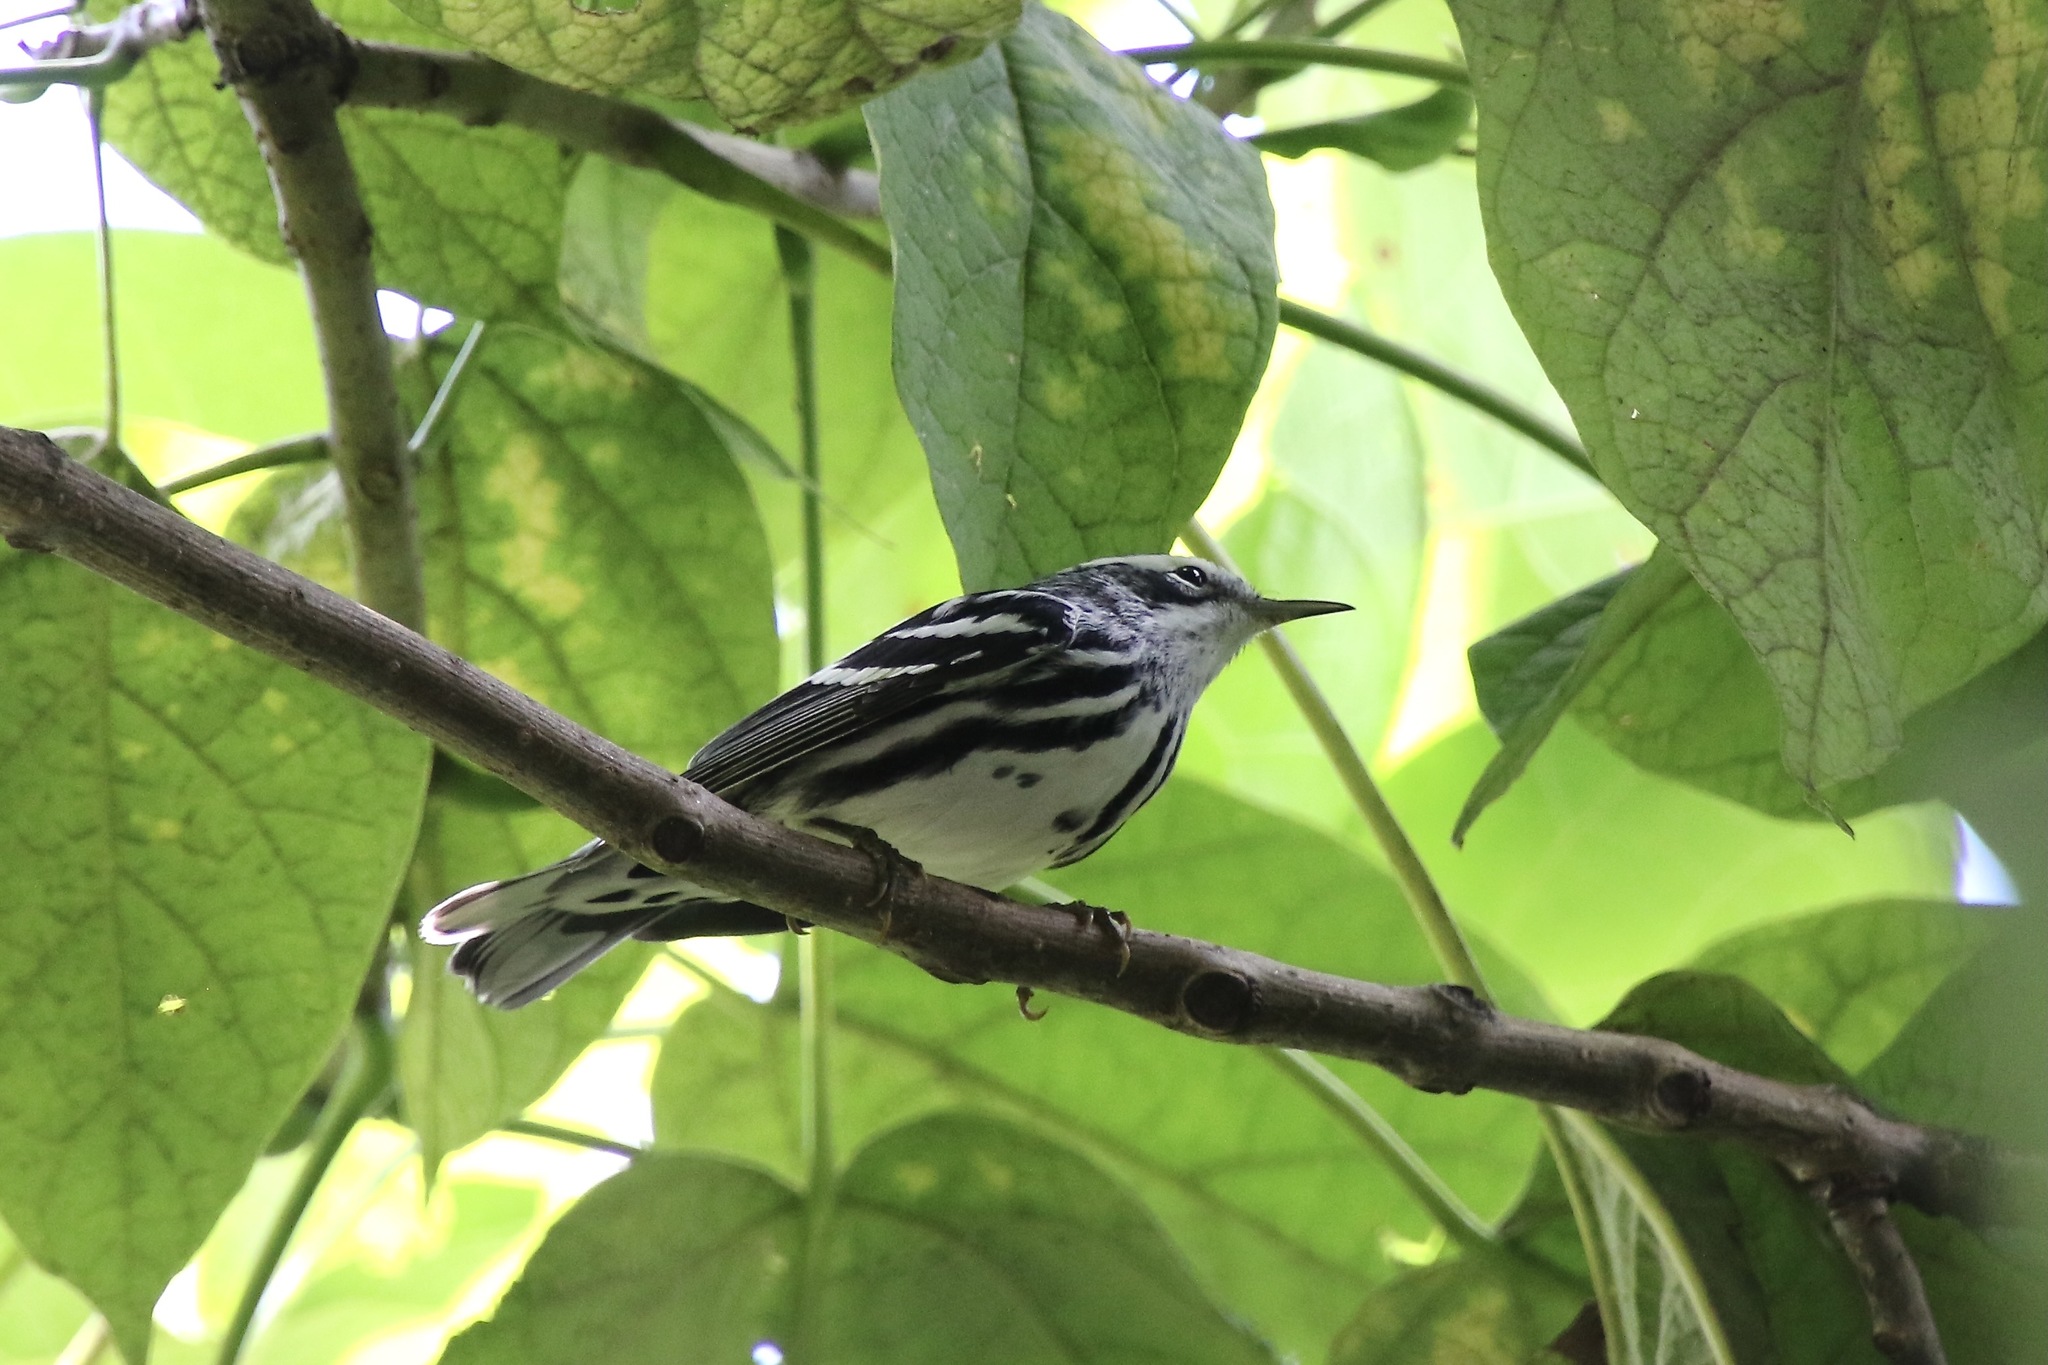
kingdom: Animalia
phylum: Chordata
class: Aves
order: Passeriformes
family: Parulidae
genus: Mniotilta
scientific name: Mniotilta varia
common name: Black-and-white warbler
